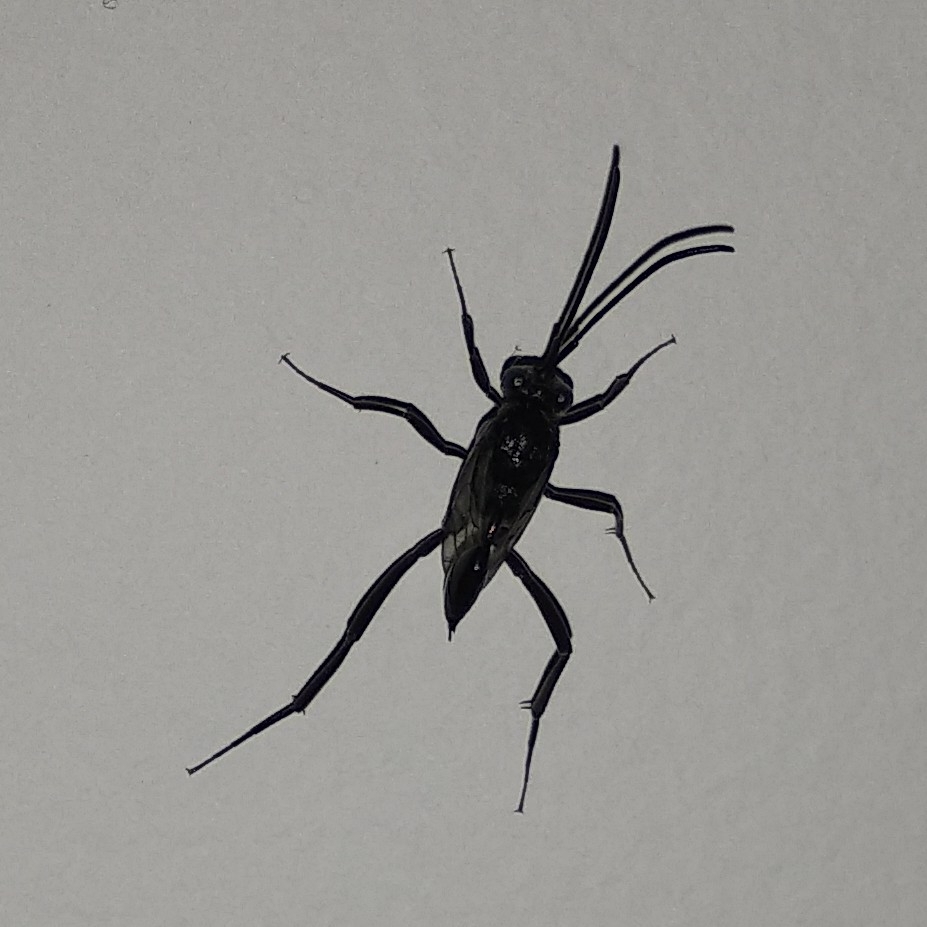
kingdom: Animalia
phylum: Arthropoda
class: Insecta
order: Hymenoptera
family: Evaniidae
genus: Evania
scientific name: Evania appendigaster
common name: Ensign wasp
